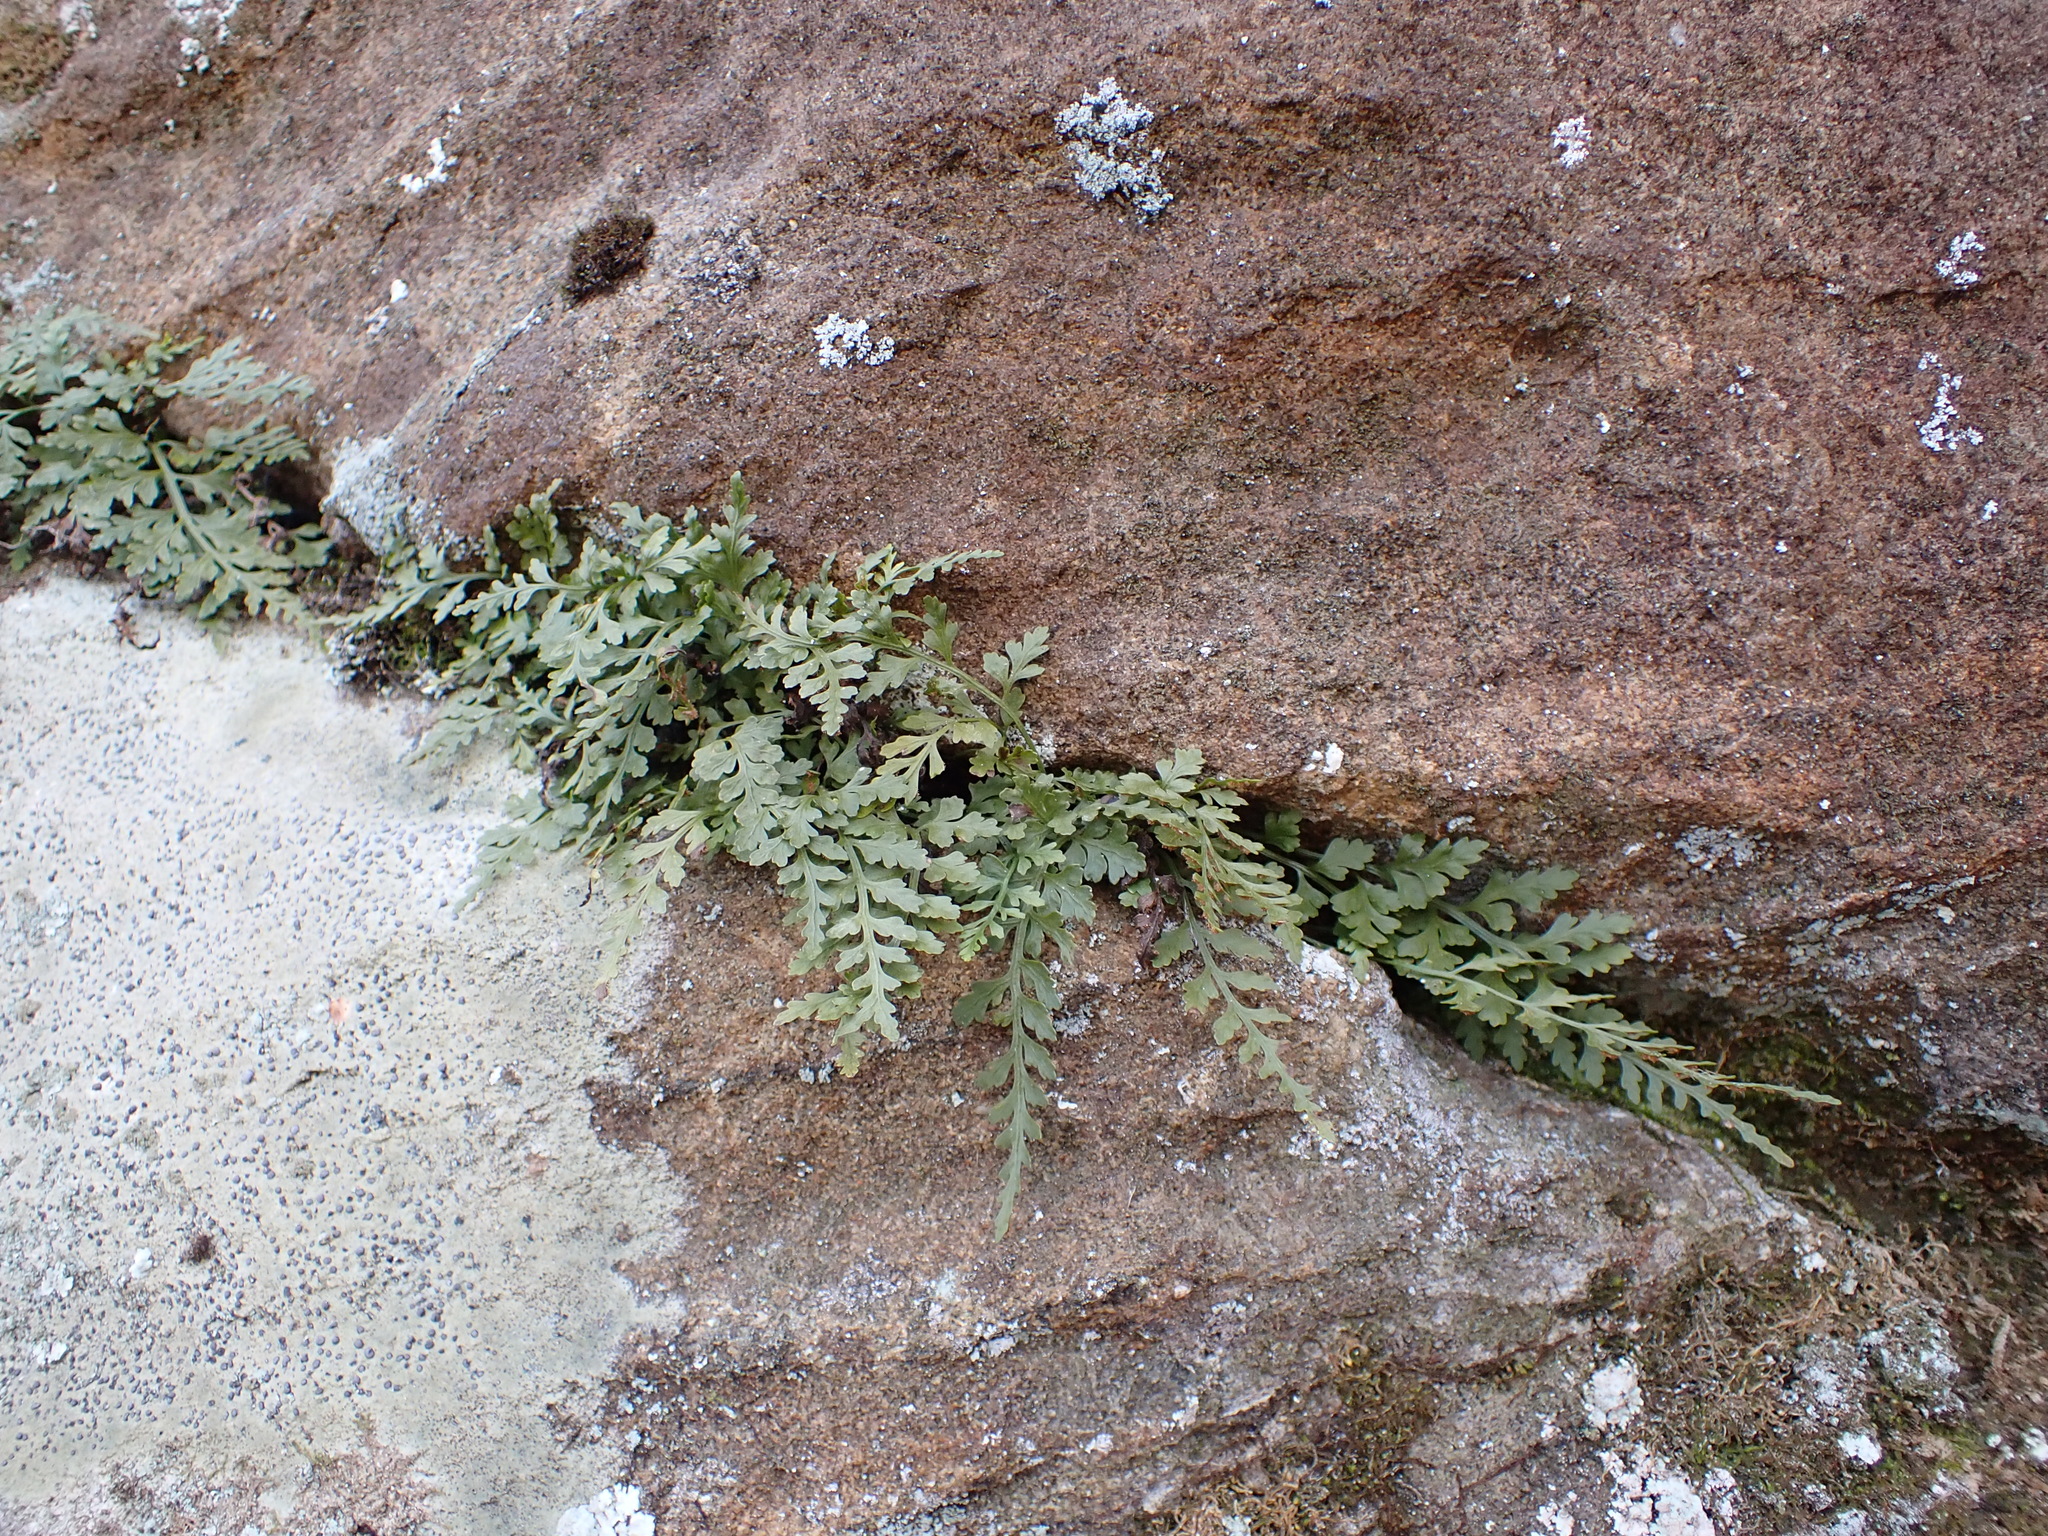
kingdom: Plantae
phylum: Tracheophyta
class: Polypodiopsida
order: Polypodiales
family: Aspleniaceae
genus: Asplenium
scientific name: Asplenium montanum
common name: Mountain spleenwort
